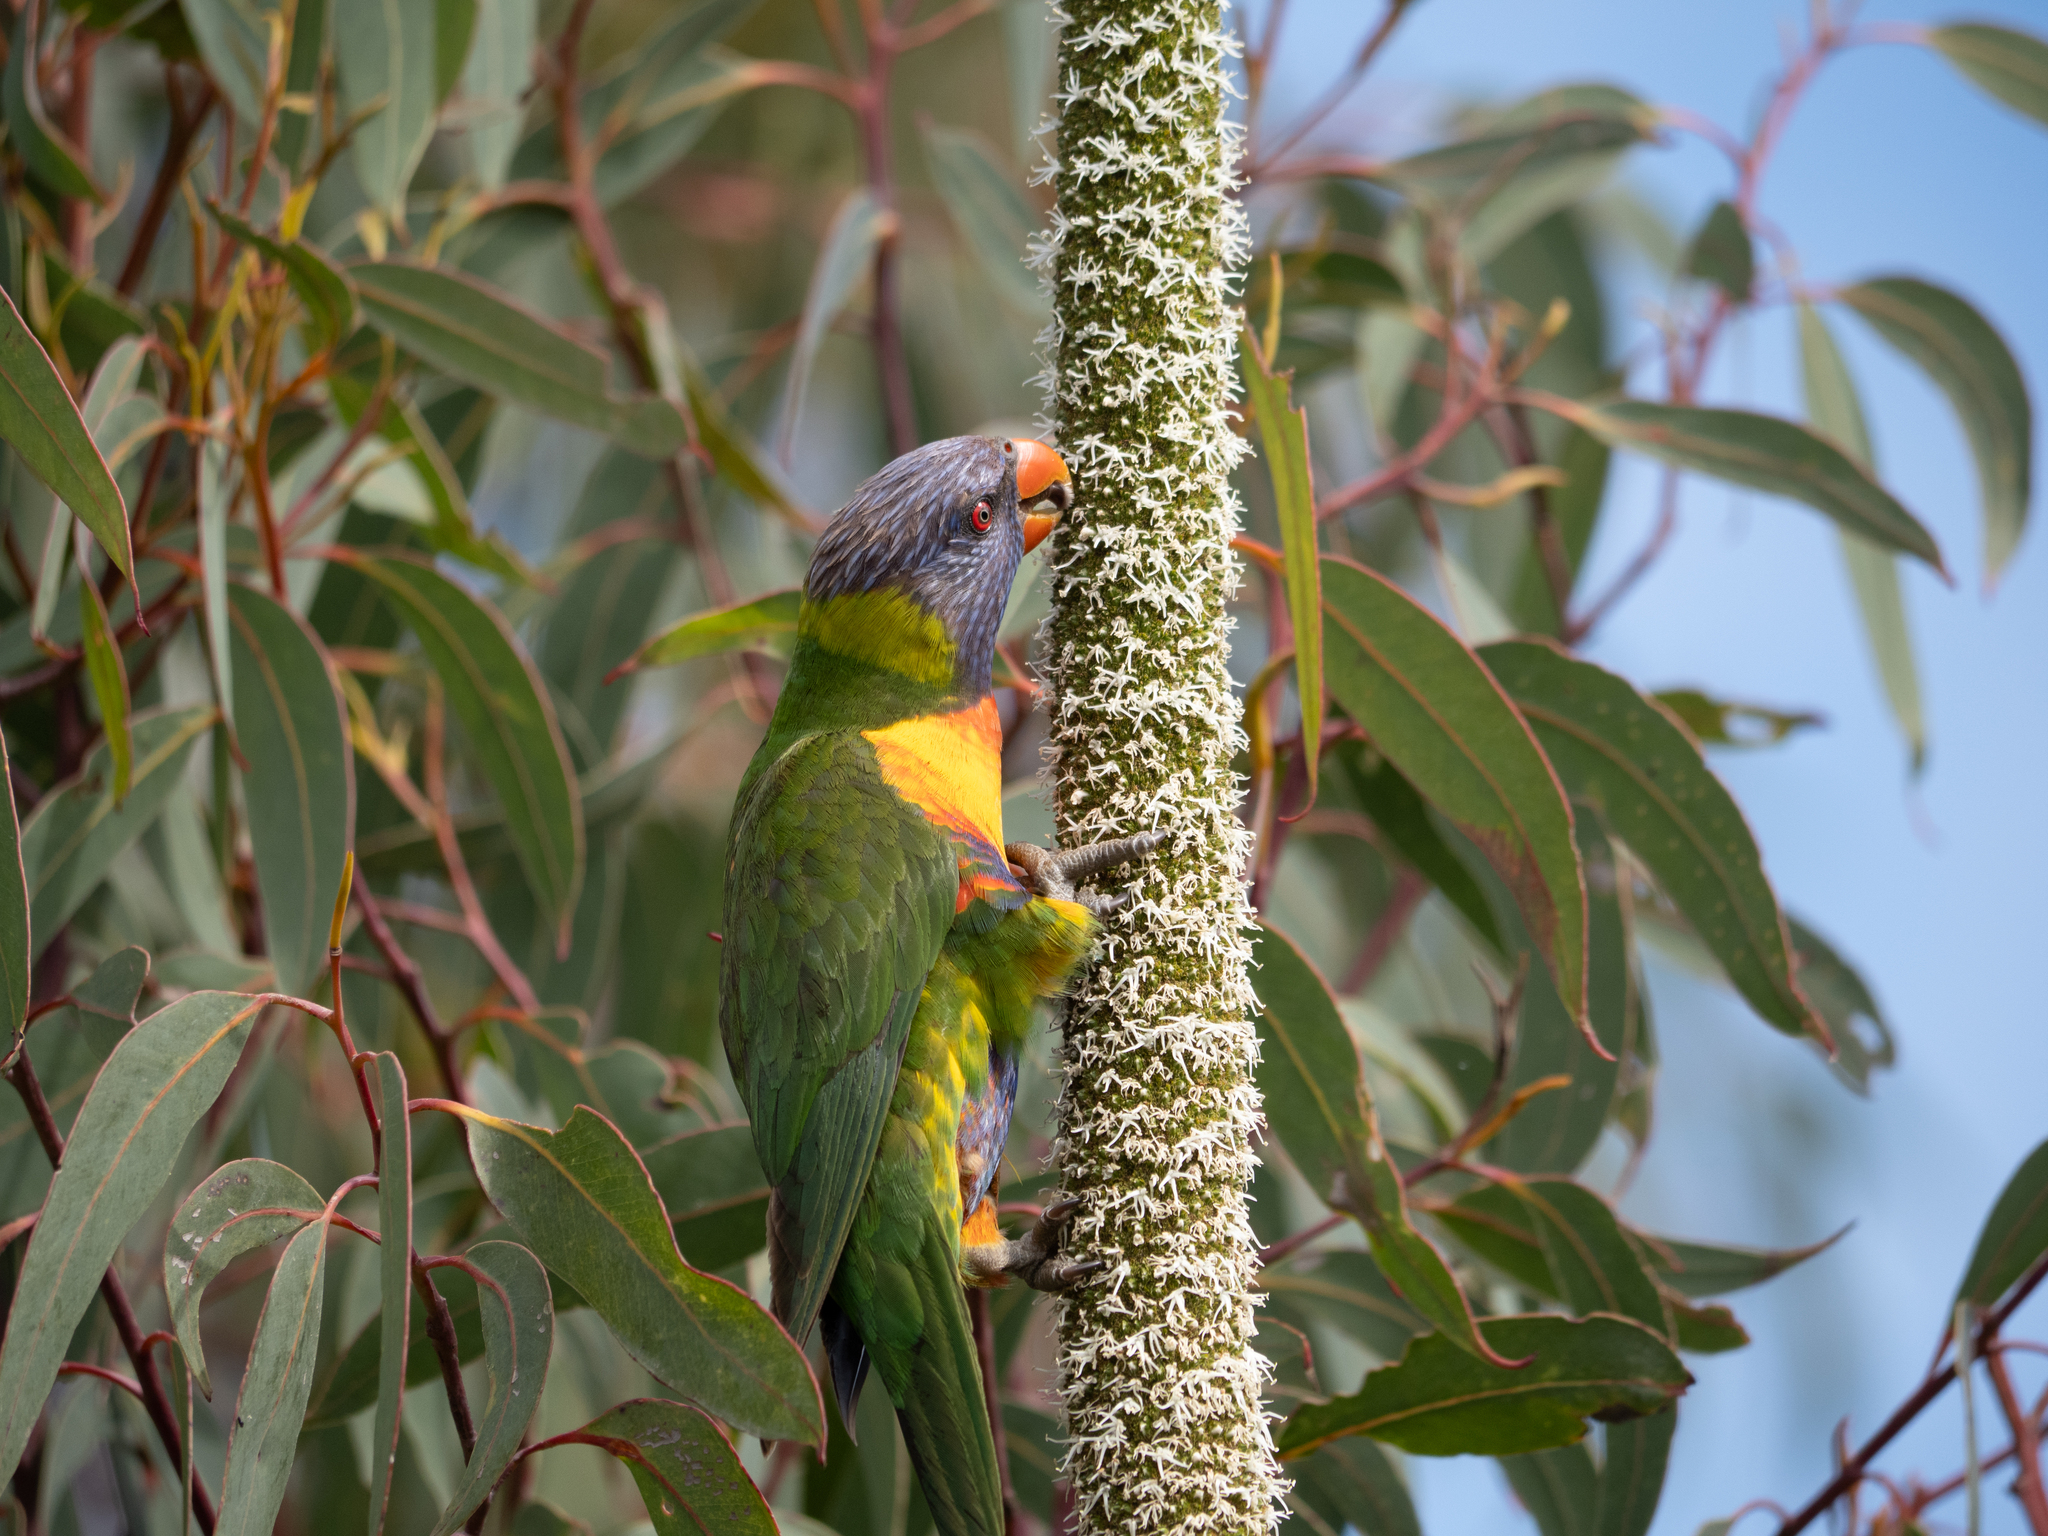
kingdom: Animalia
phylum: Chordata
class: Aves
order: Psittaciformes
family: Psittacidae
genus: Trichoglossus
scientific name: Trichoglossus haematodus
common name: Coconut lorikeet
